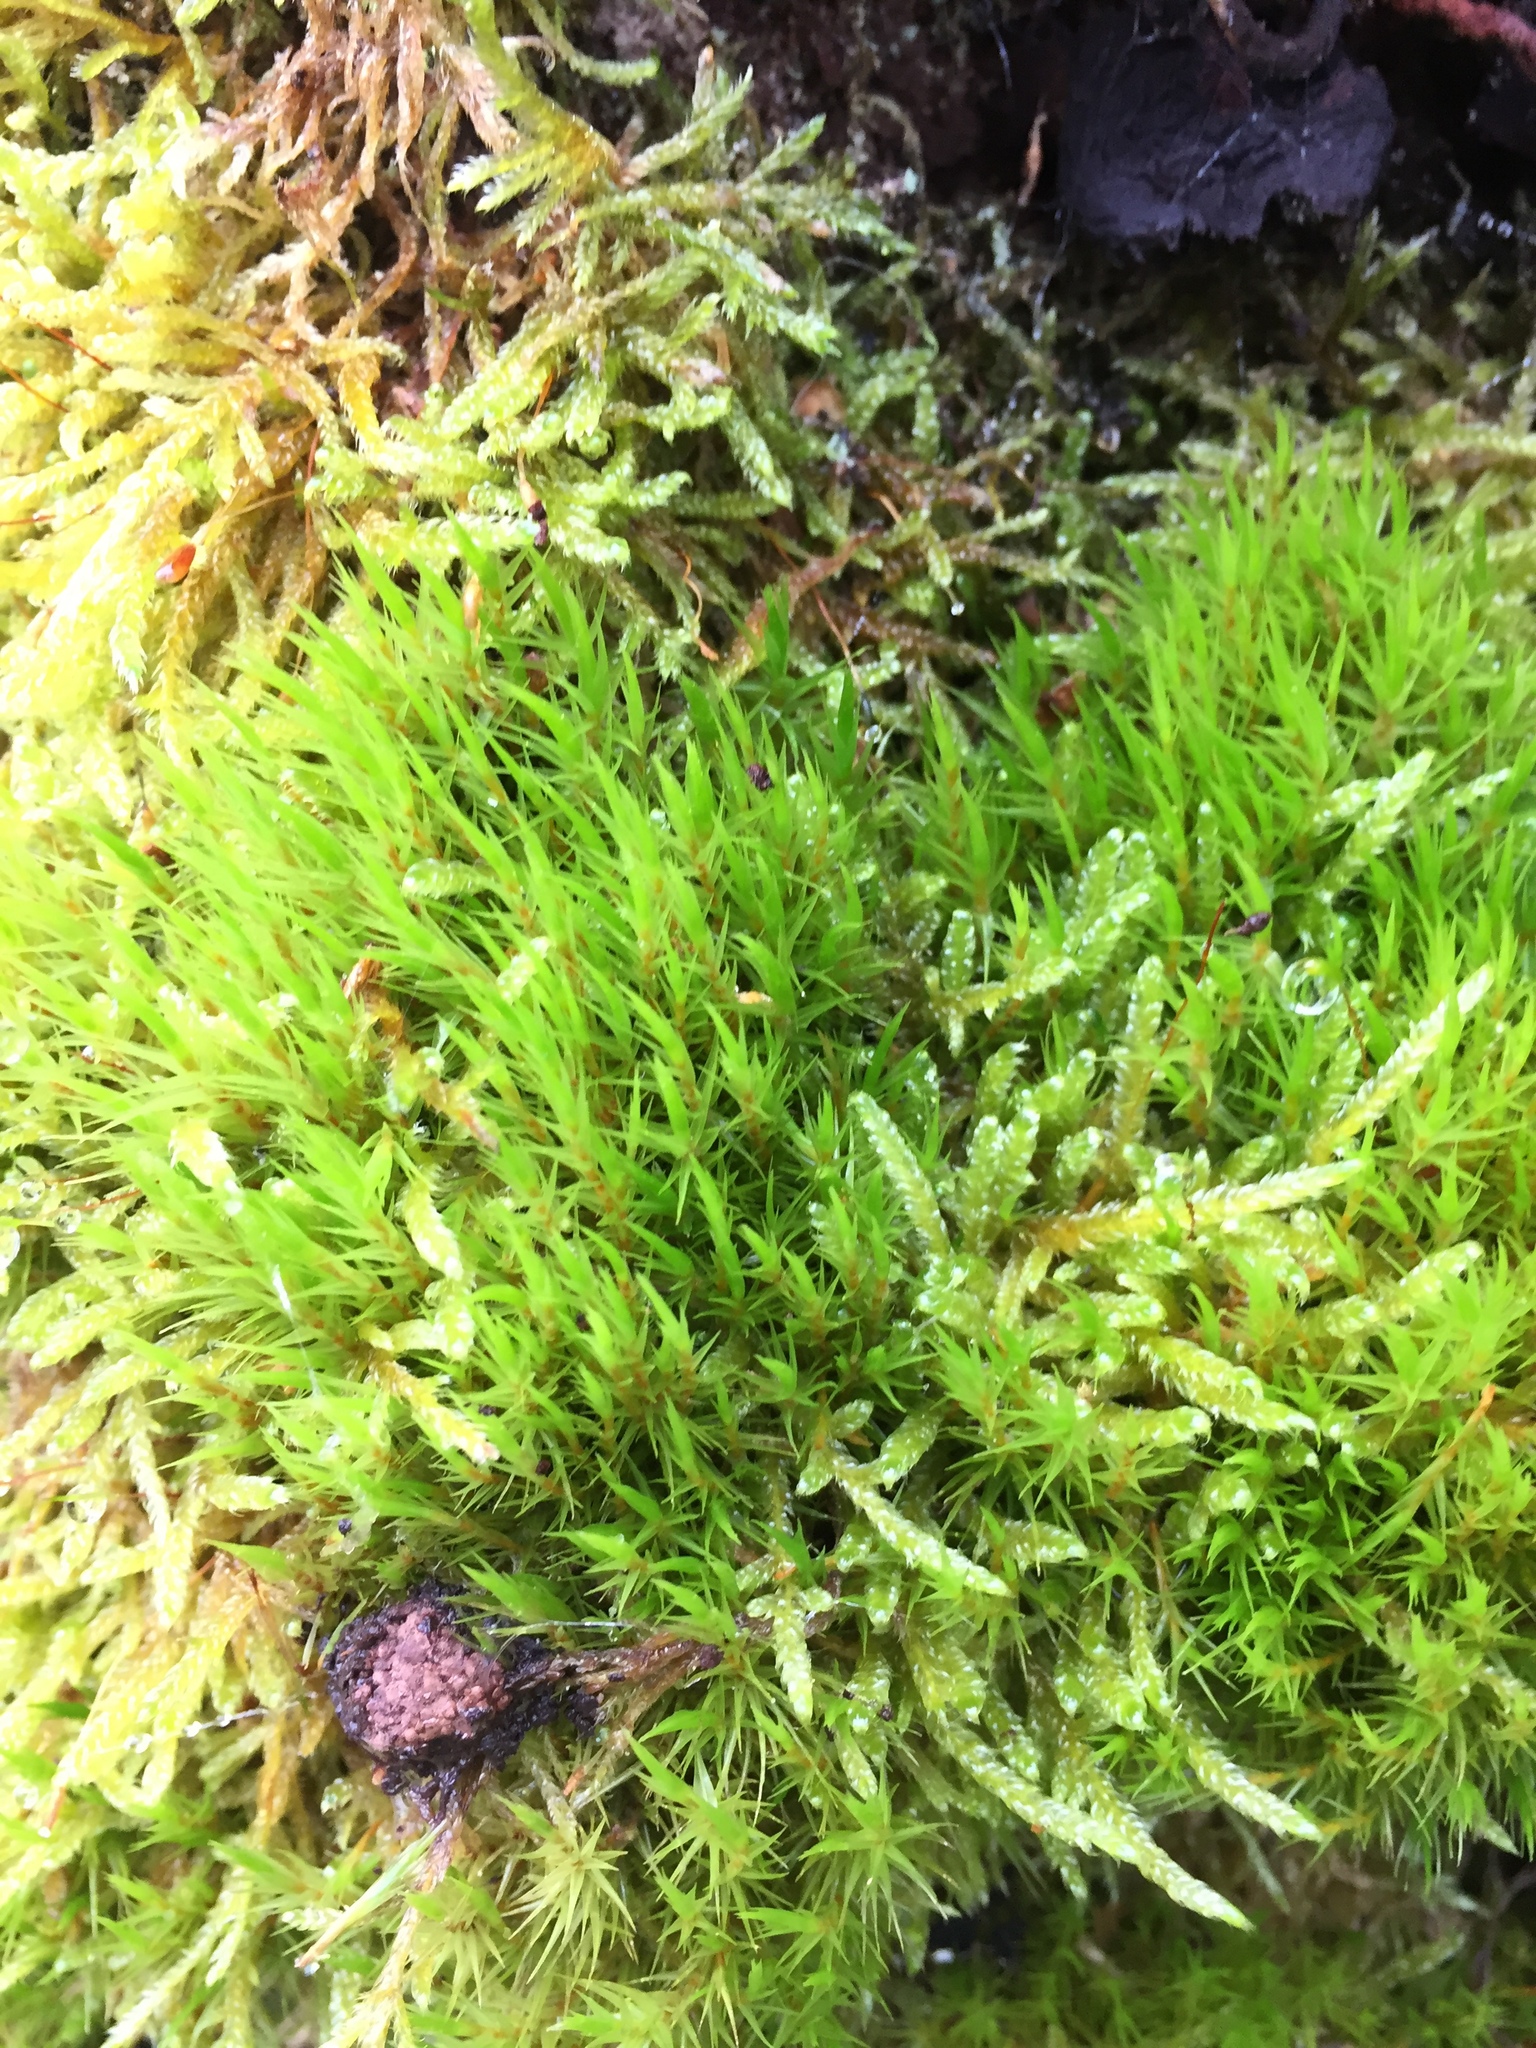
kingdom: Plantae
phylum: Bryophyta
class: Bryopsida
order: Hypnales
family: Hypnaceae
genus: Hypnum
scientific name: Hypnum cupressiforme
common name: Cypress-leaved plait-moss
